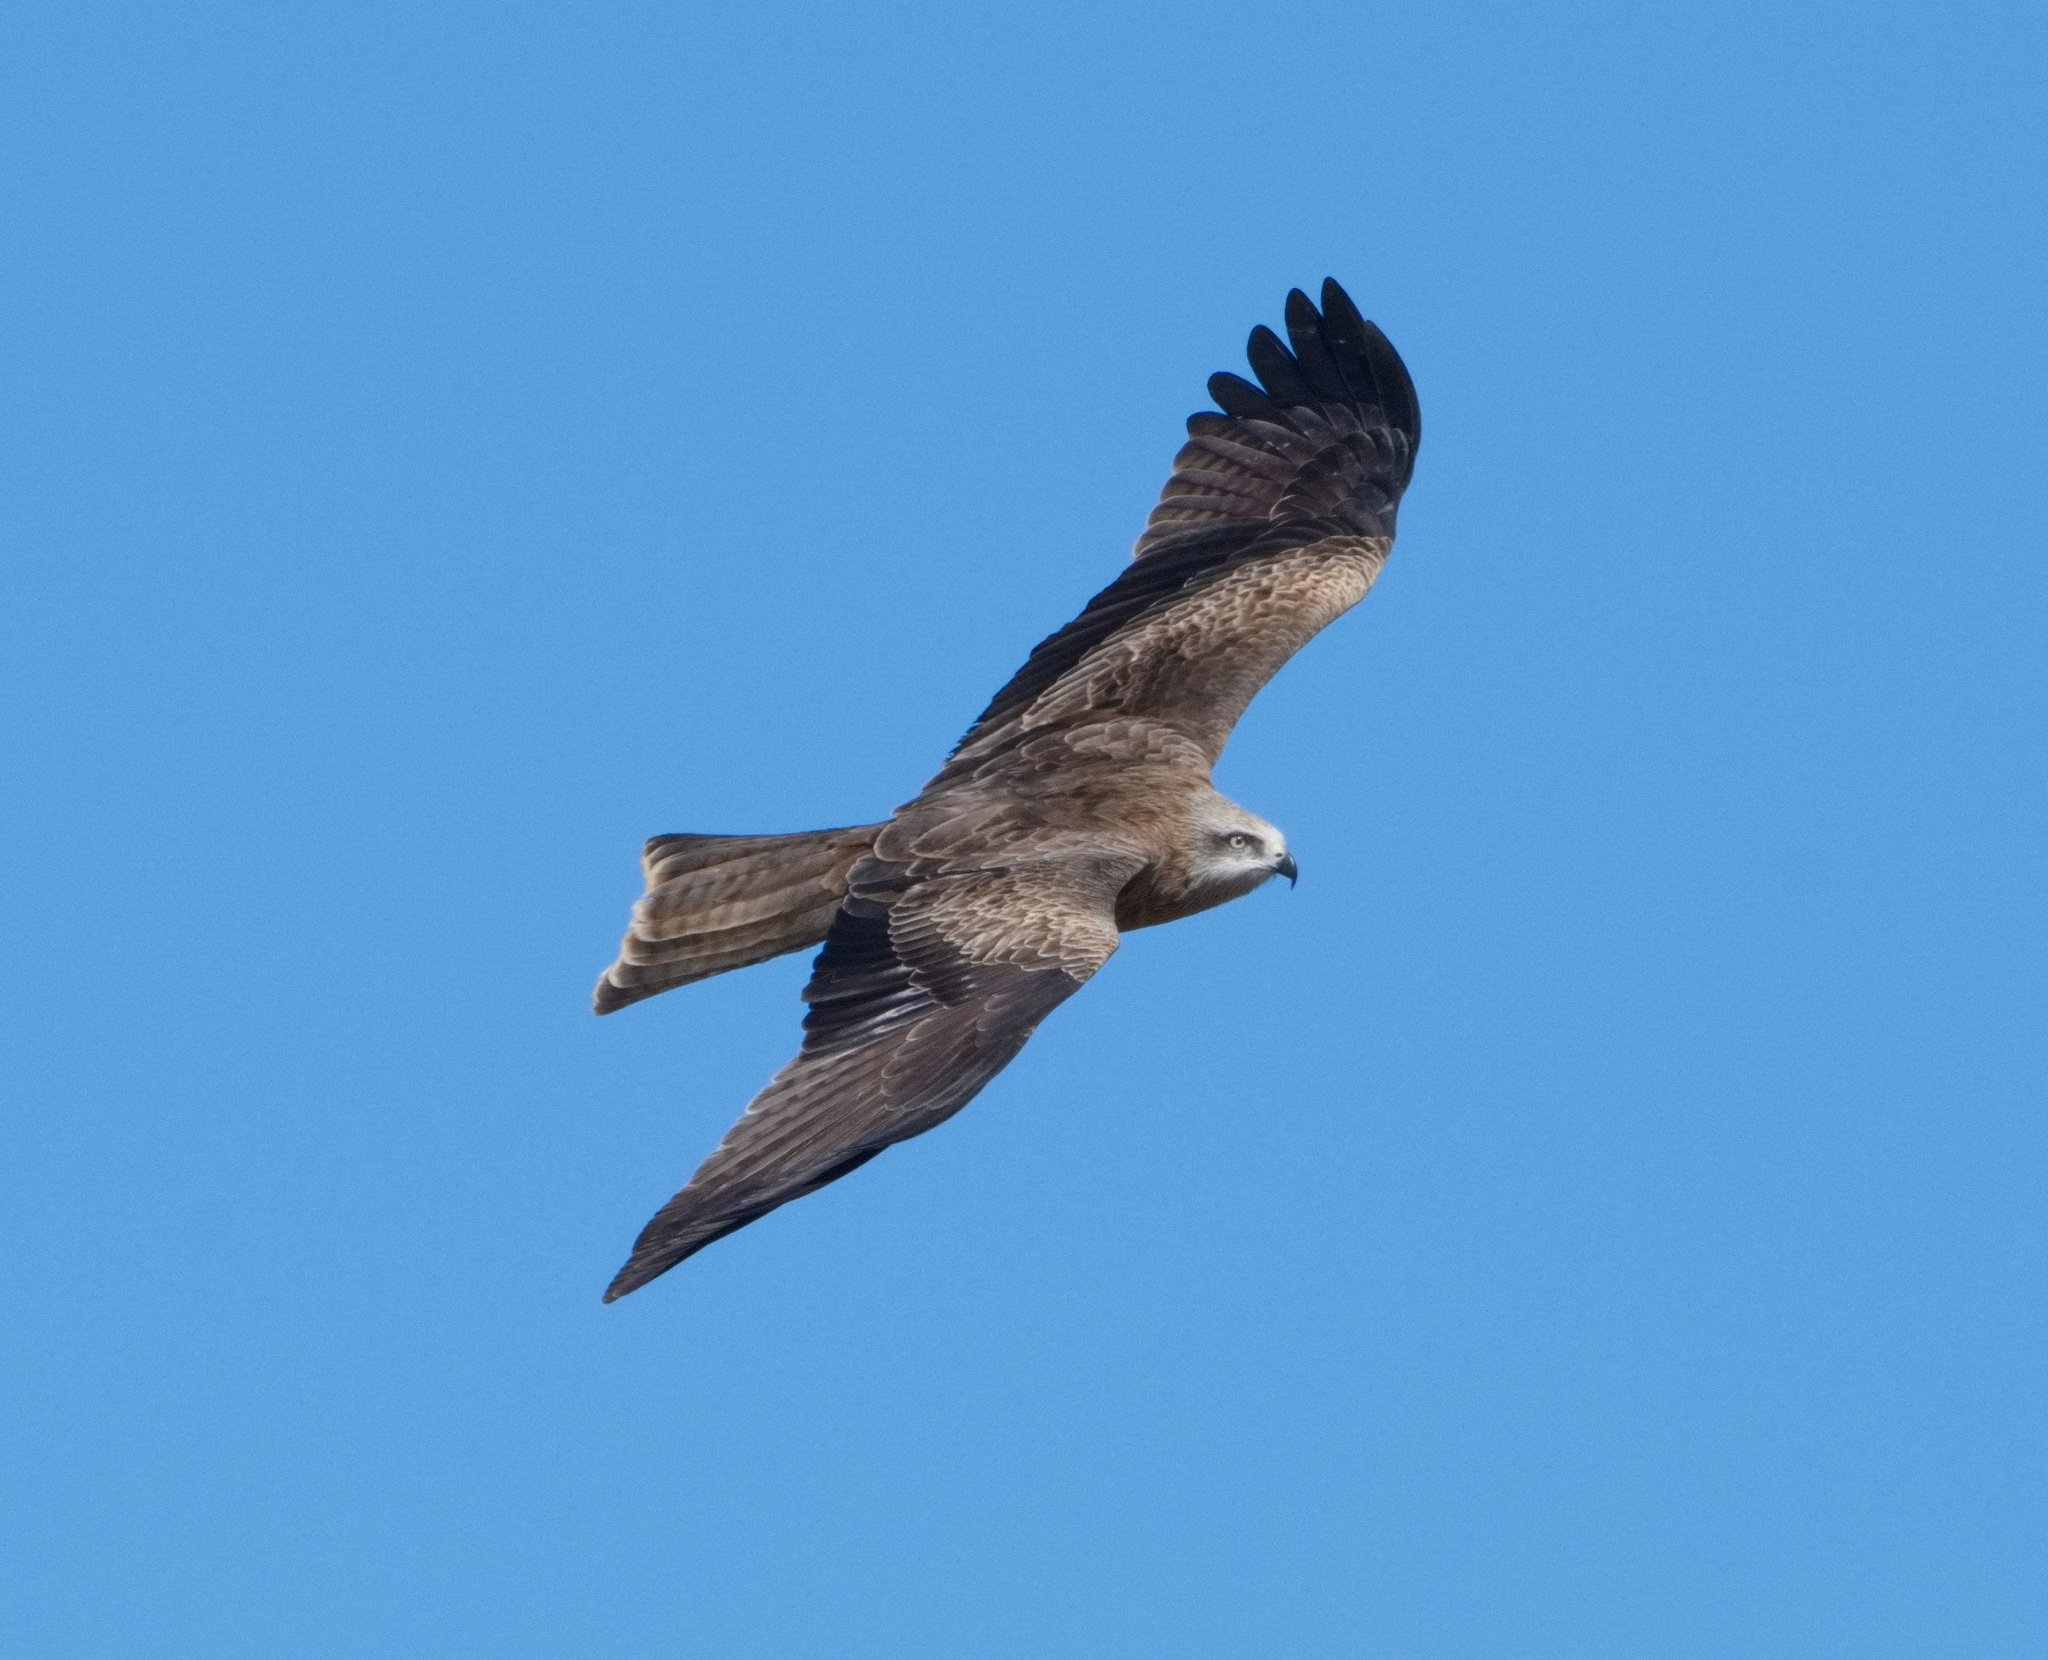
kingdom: Animalia
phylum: Chordata
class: Aves
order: Accipitriformes
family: Accipitridae
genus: Milvus
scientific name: Milvus migrans
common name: Black kite
